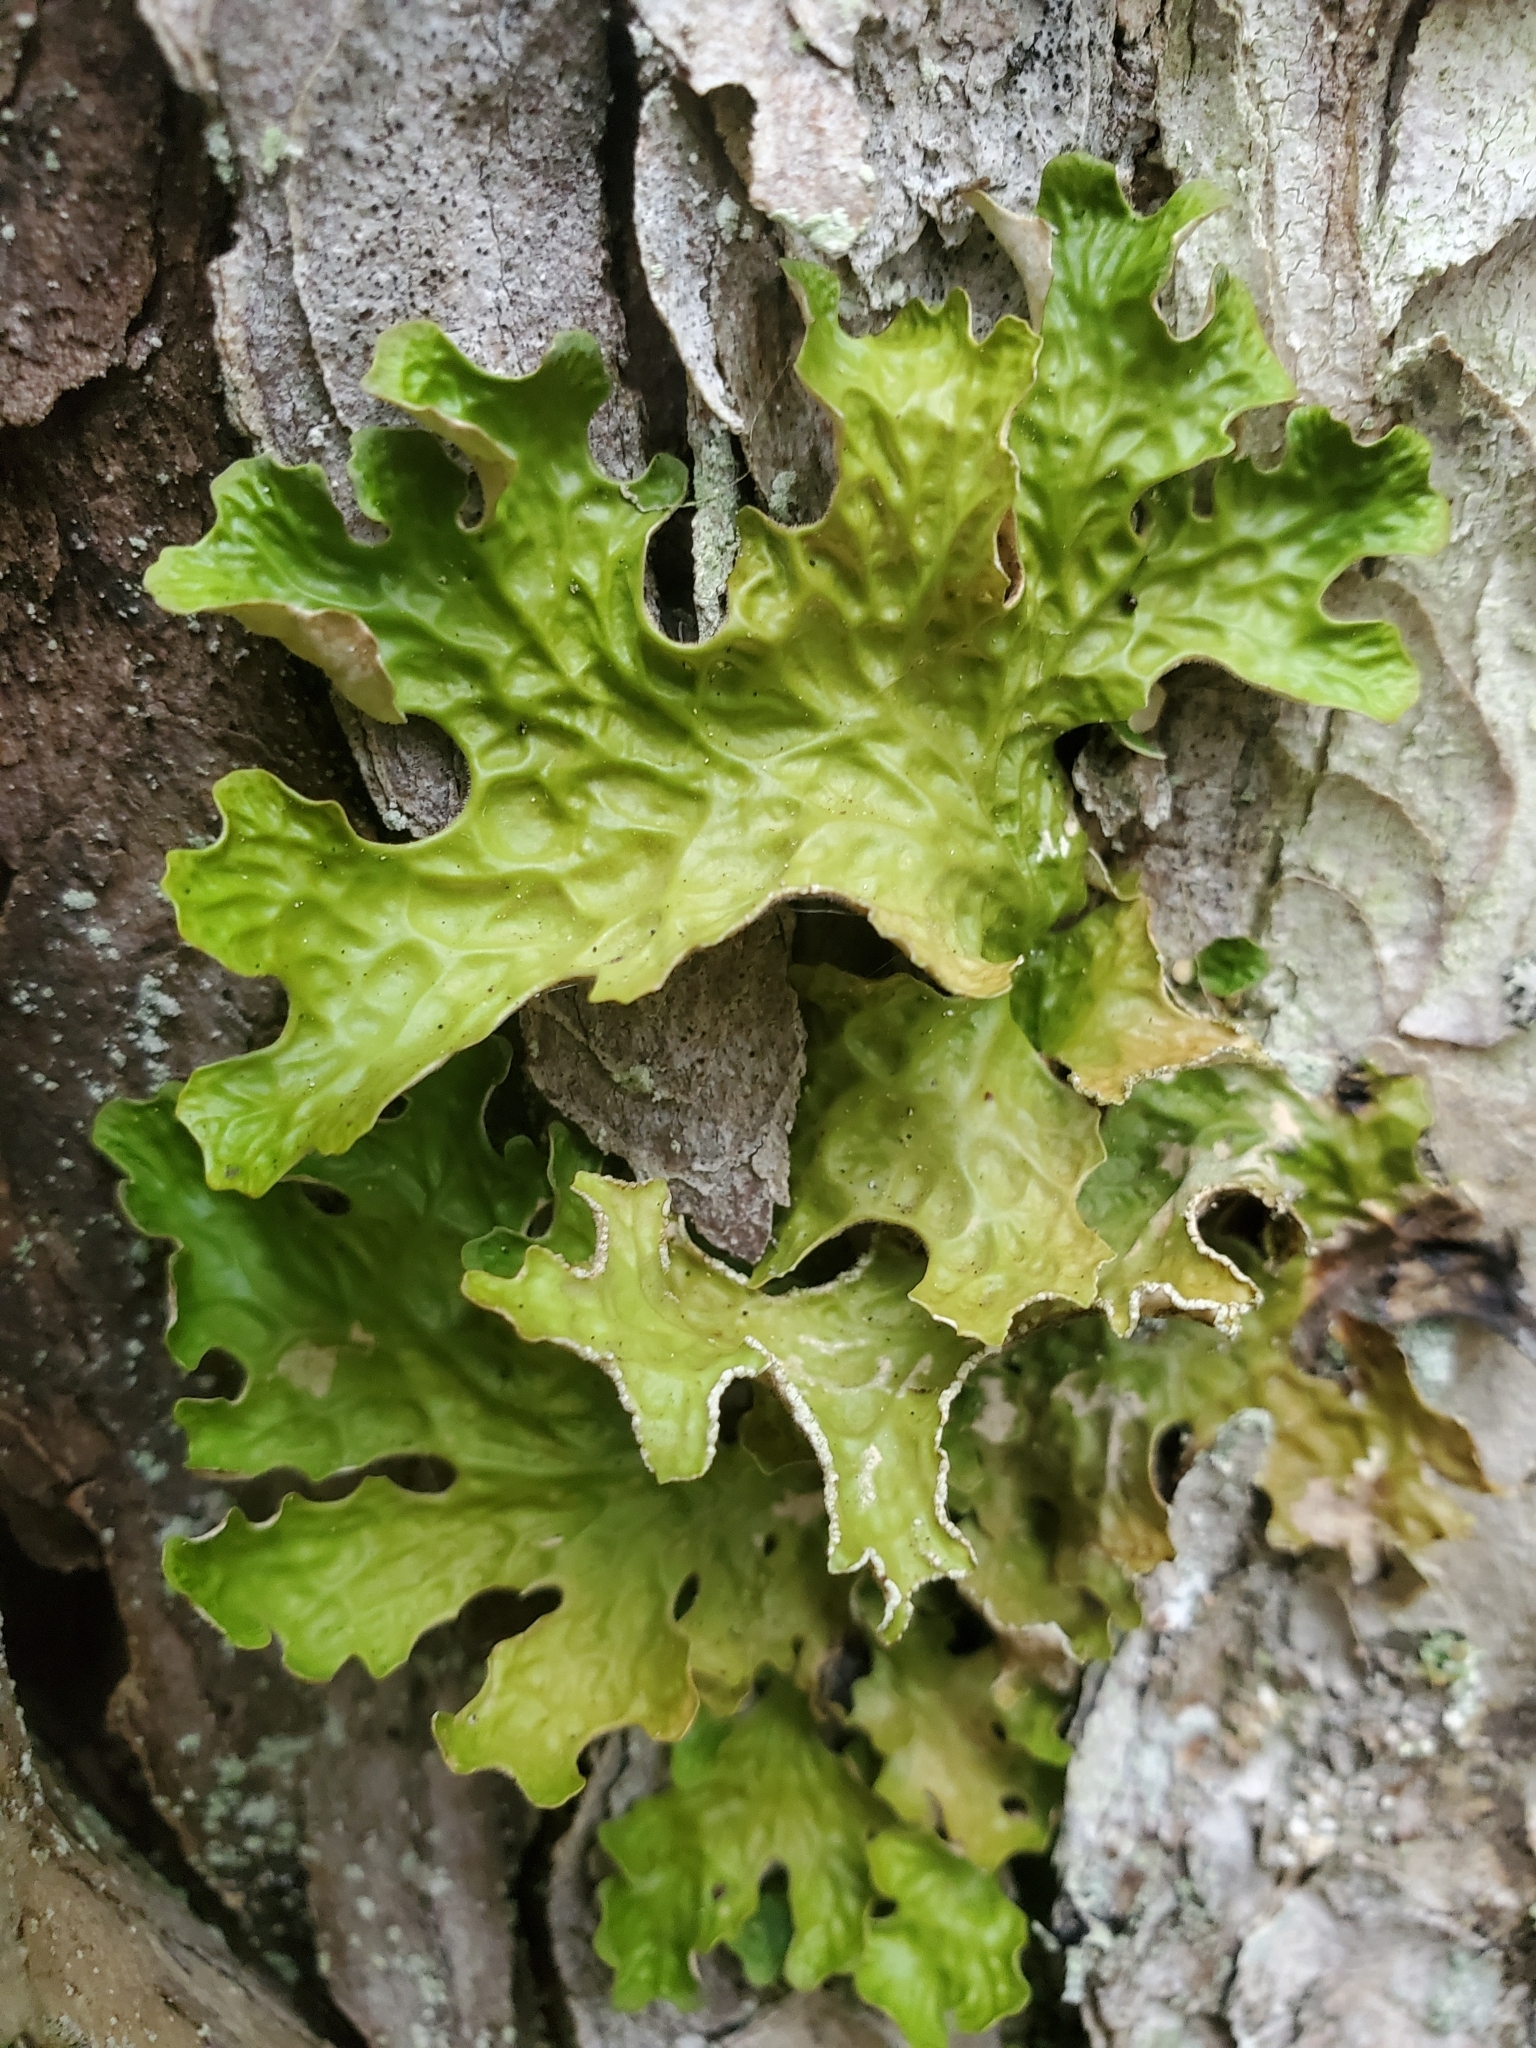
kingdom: Fungi
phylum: Ascomycota
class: Lecanoromycetes
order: Peltigerales
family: Lobariaceae
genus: Lobaria
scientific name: Lobaria pulmonaria
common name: Lungwort
